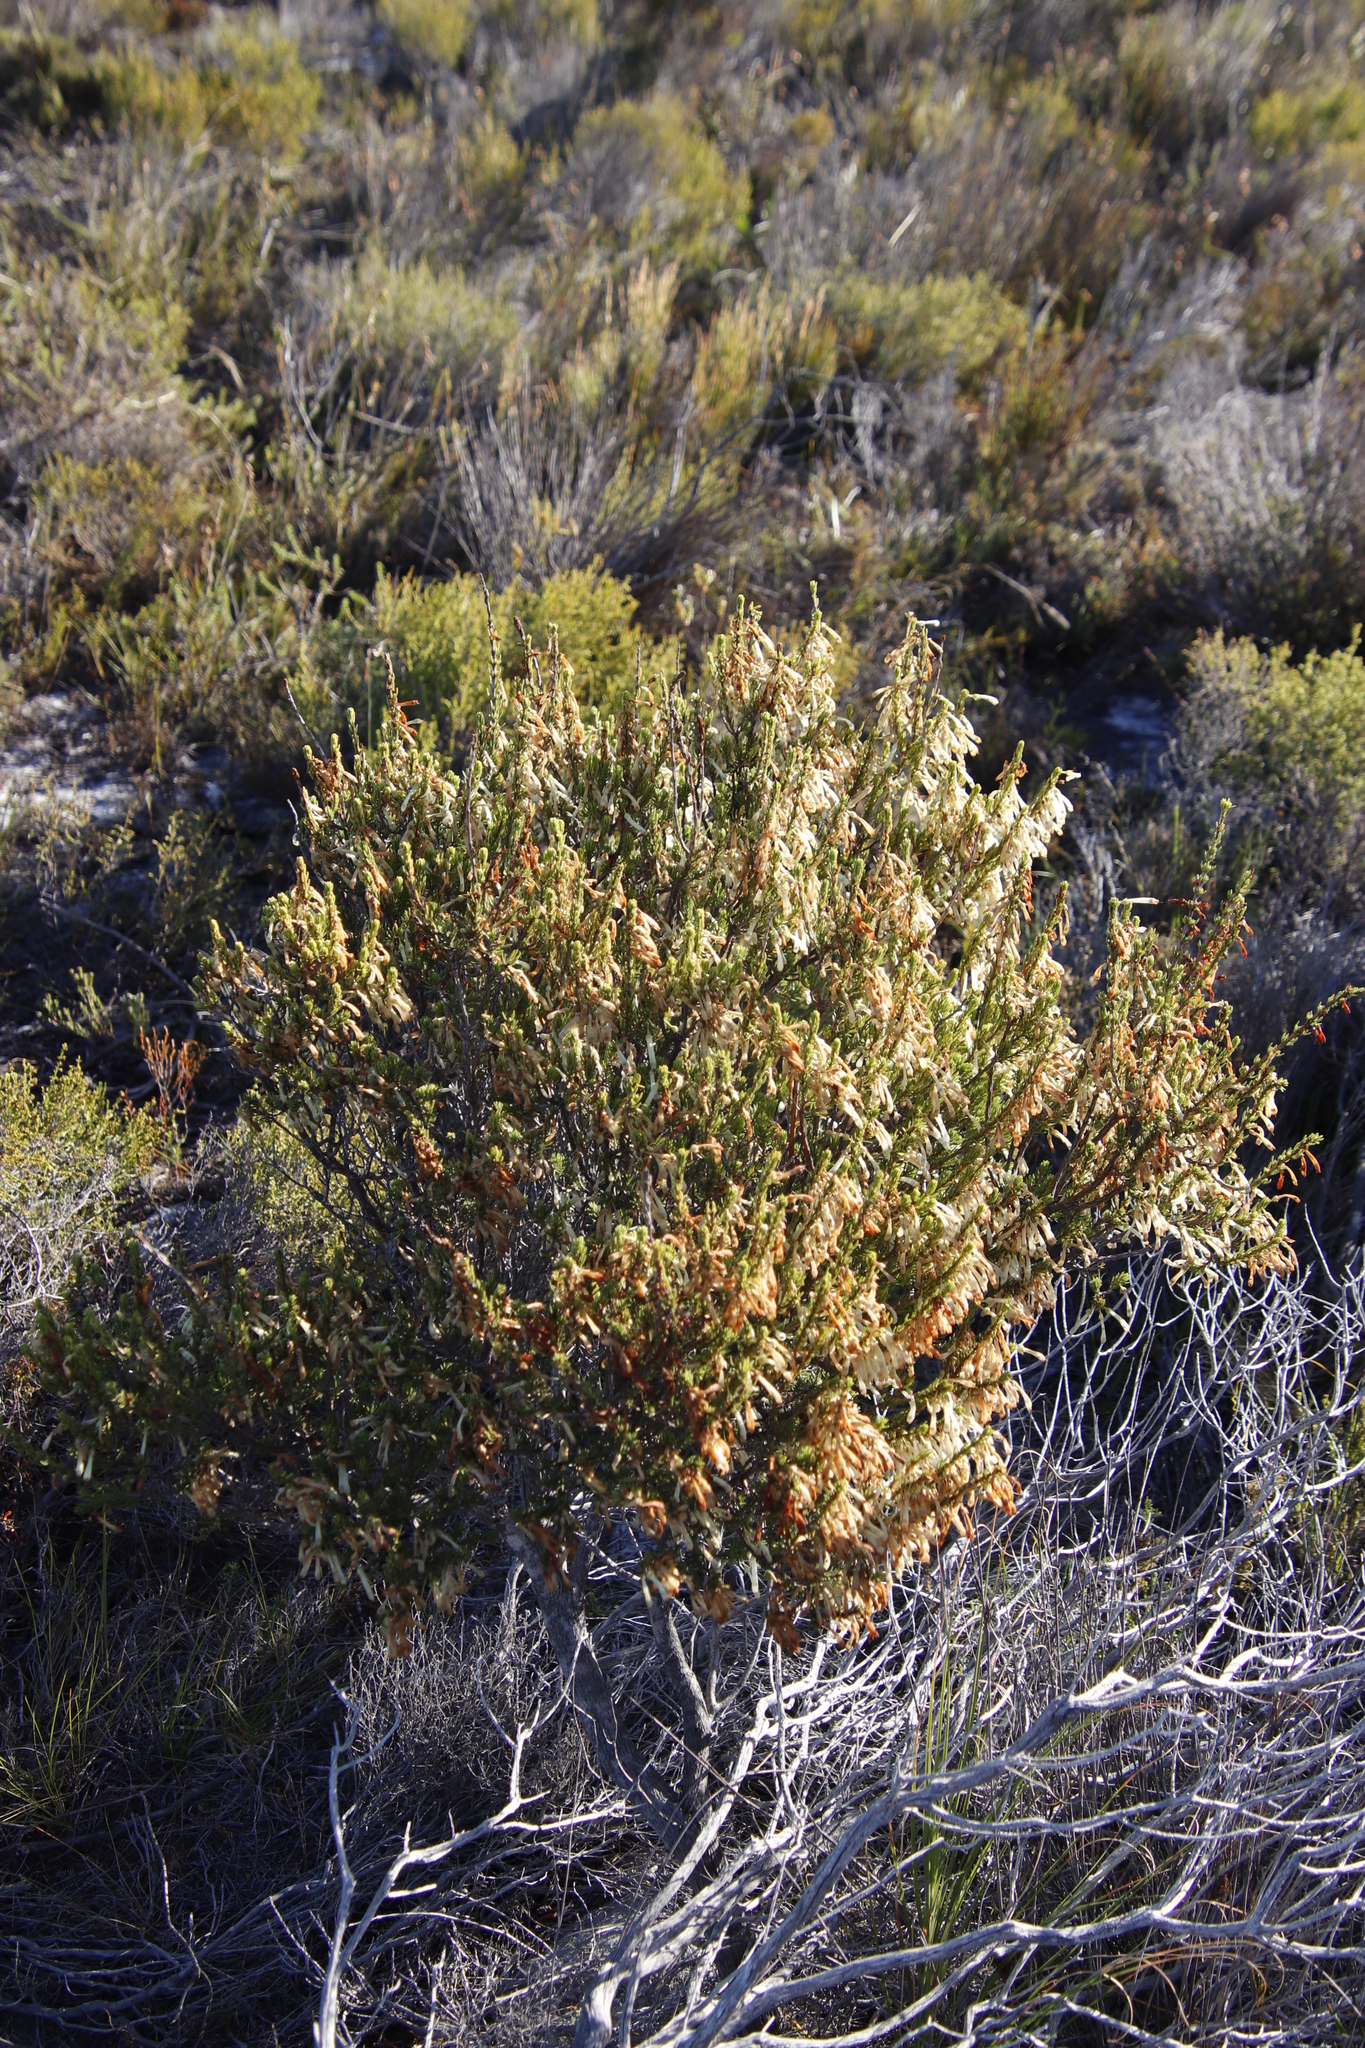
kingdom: Plantae
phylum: Tracheophyta
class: Magnoliopsida
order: Ericales
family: Ericaceae
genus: Erica
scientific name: Erica mammosa
